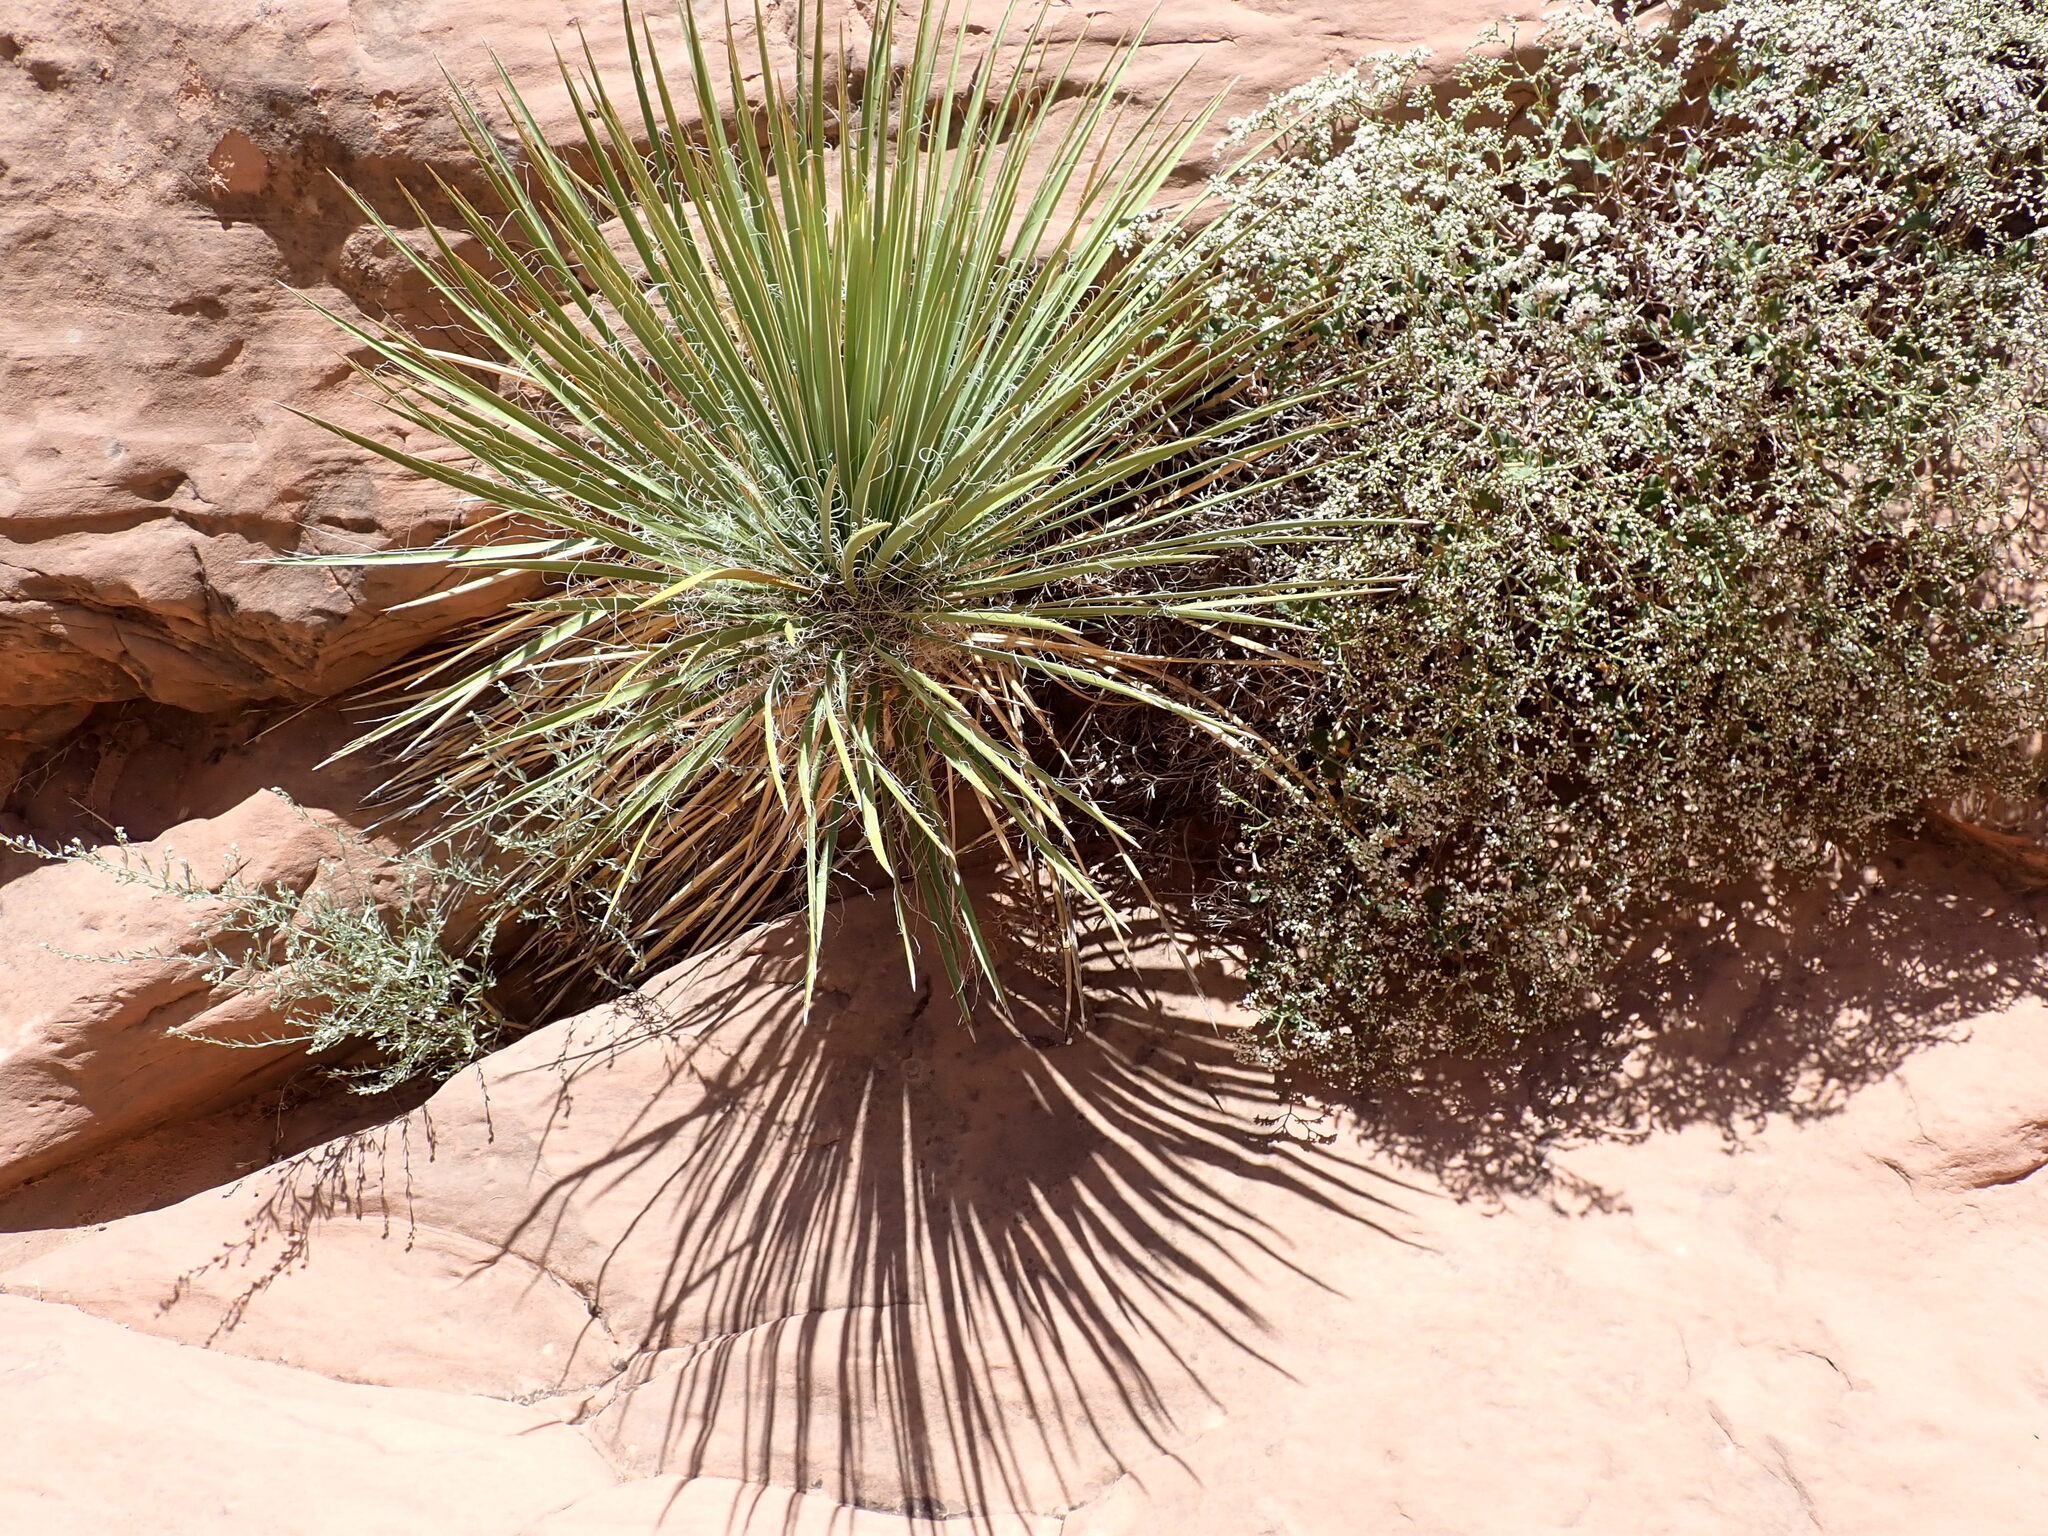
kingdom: Plantae
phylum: Tracheophyta
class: Magnoliopsida
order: Caryophyllales
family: Polygonaceae
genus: Eriogonum
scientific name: Eriogonum corymbosum
